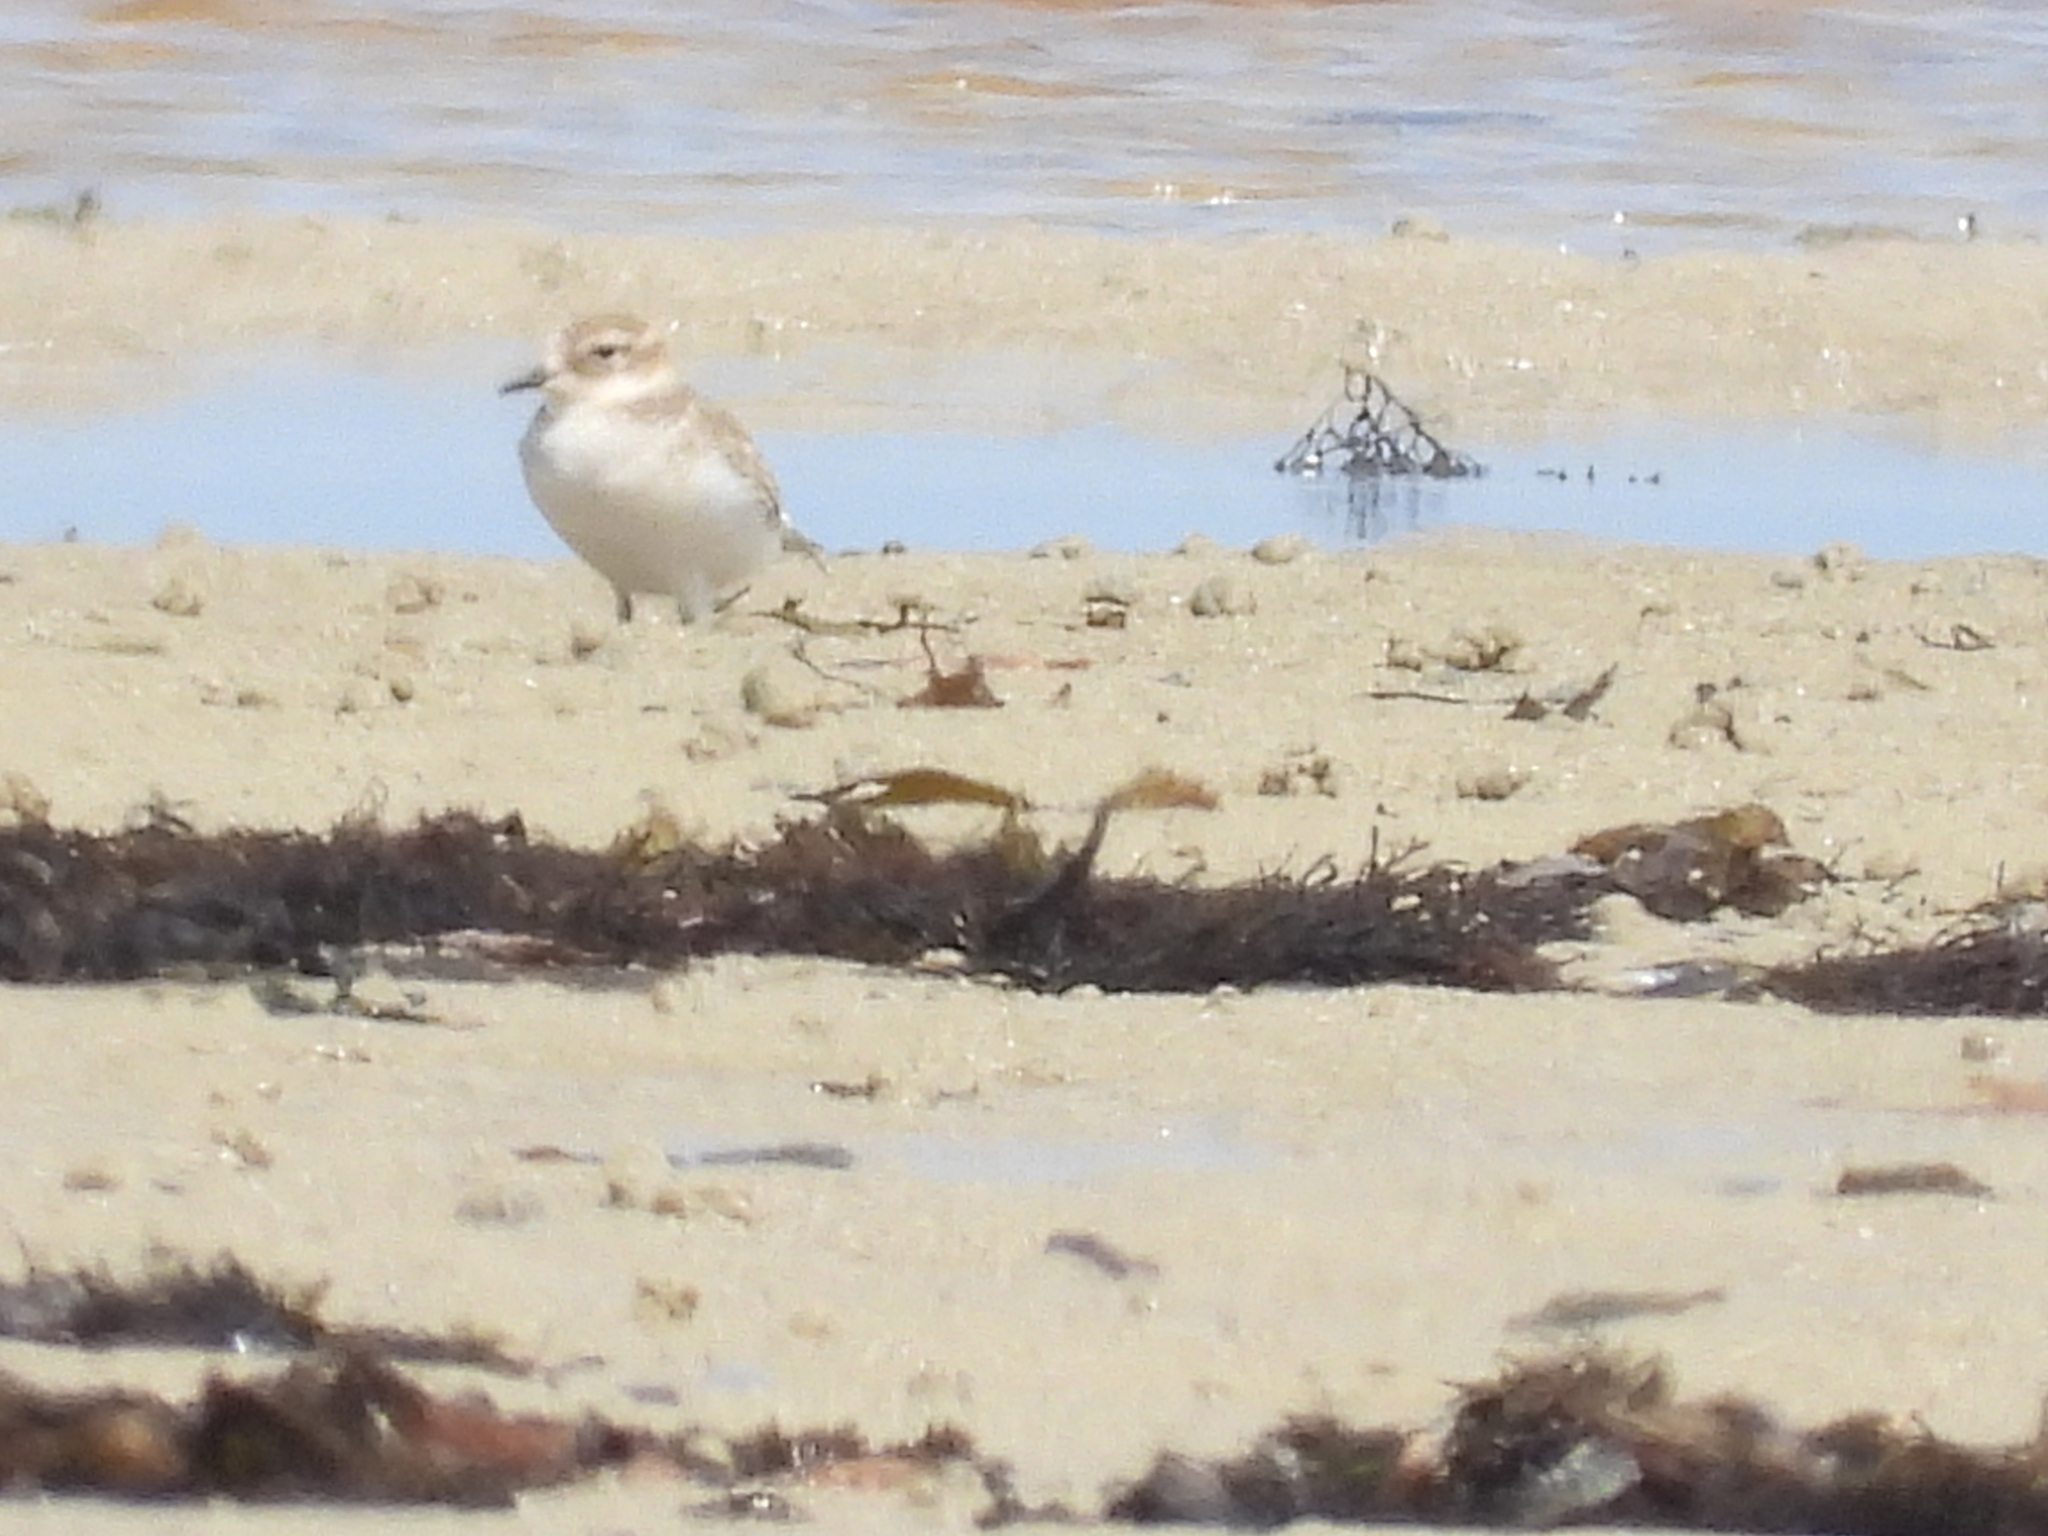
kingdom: Animalia
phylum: Chordata
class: Aves
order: Charadriiformes
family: Charadriidae
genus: Anarhynchus
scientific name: Anarhynchus
